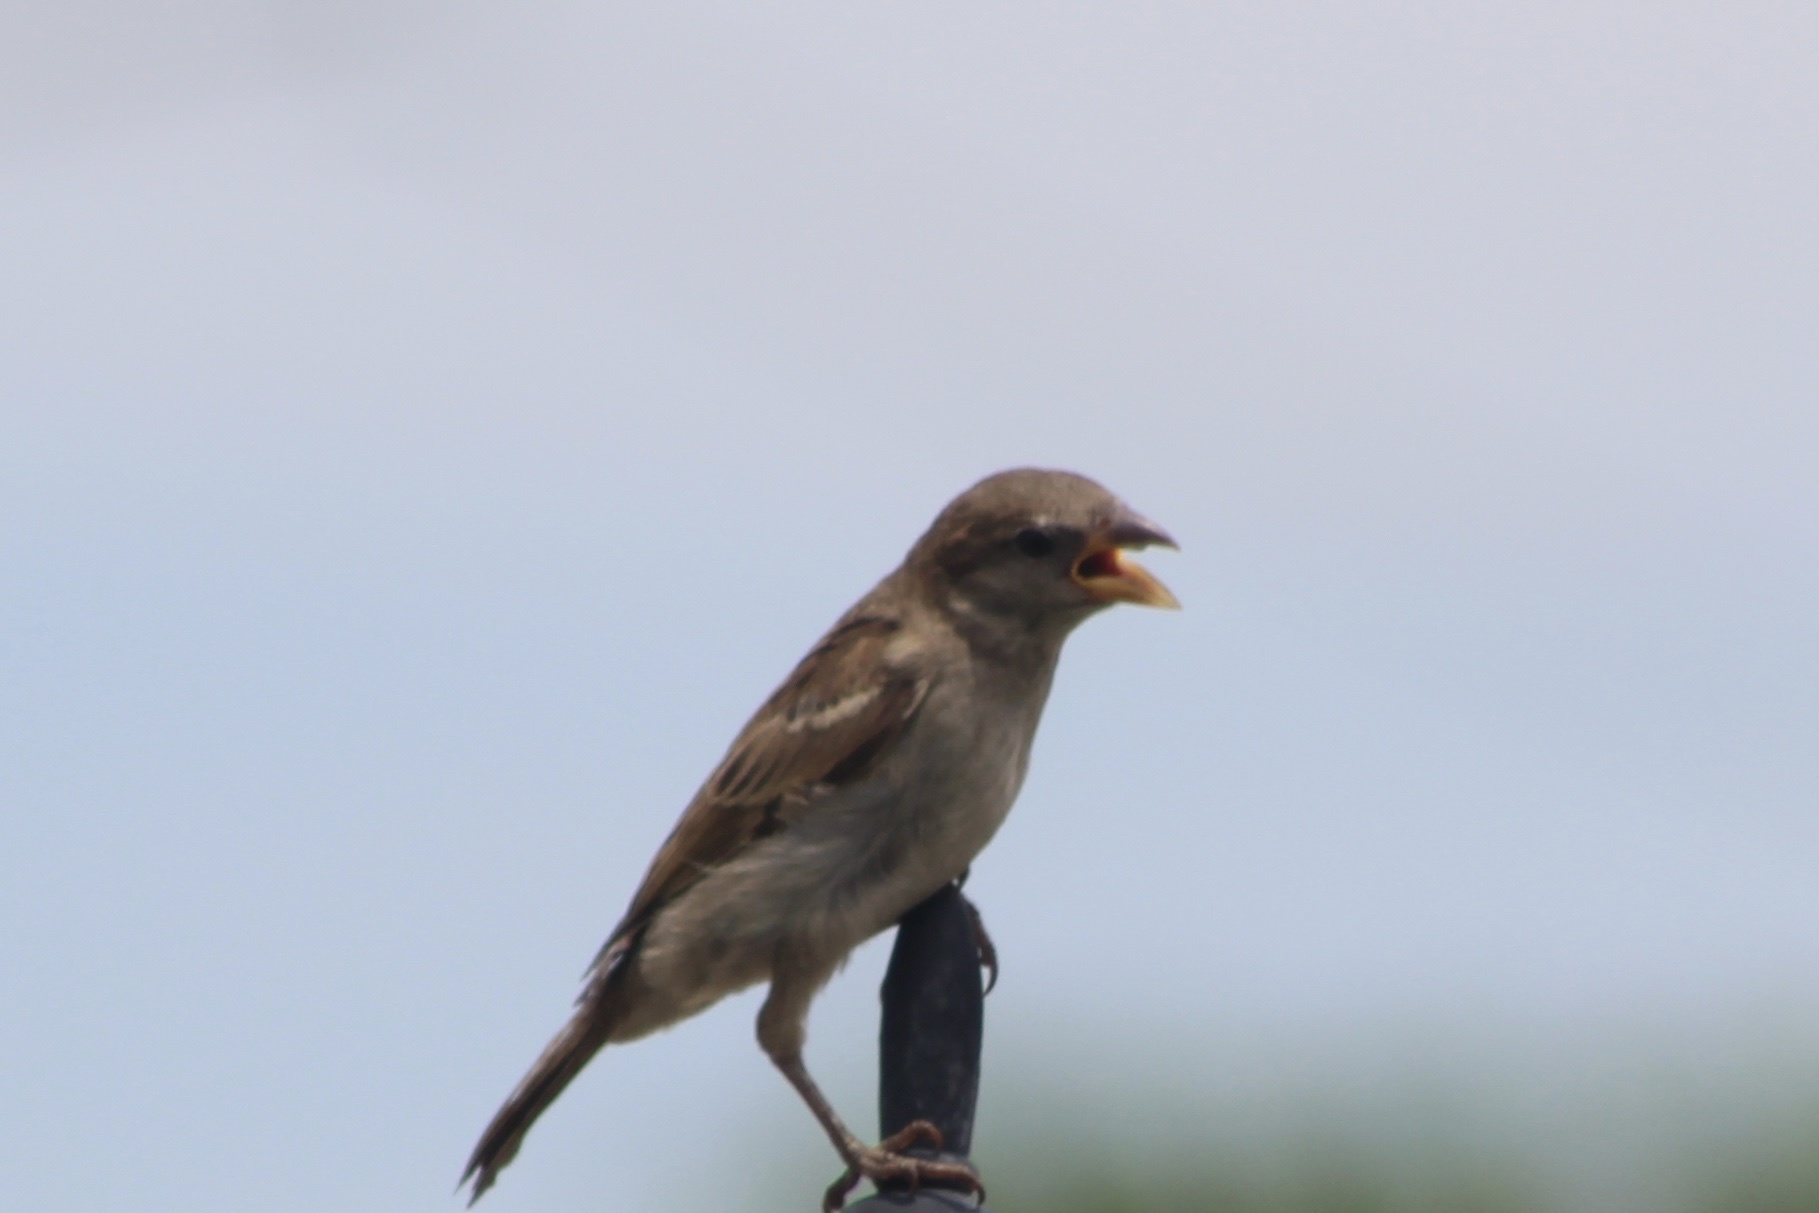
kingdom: Animalia
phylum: Chordata
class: Aves
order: Passeriformes
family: Passeridae
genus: Passer
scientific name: Passer domesticus
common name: House sparrow
